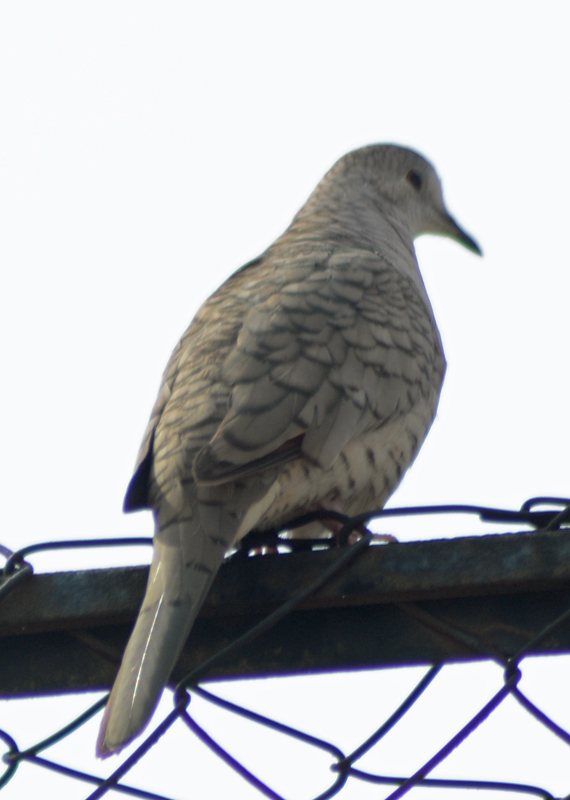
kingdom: Animalia
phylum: Chordata
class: Aves
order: Columbiformes
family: Columbidae
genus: Columbina
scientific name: Columbina inca
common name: Inca dove
